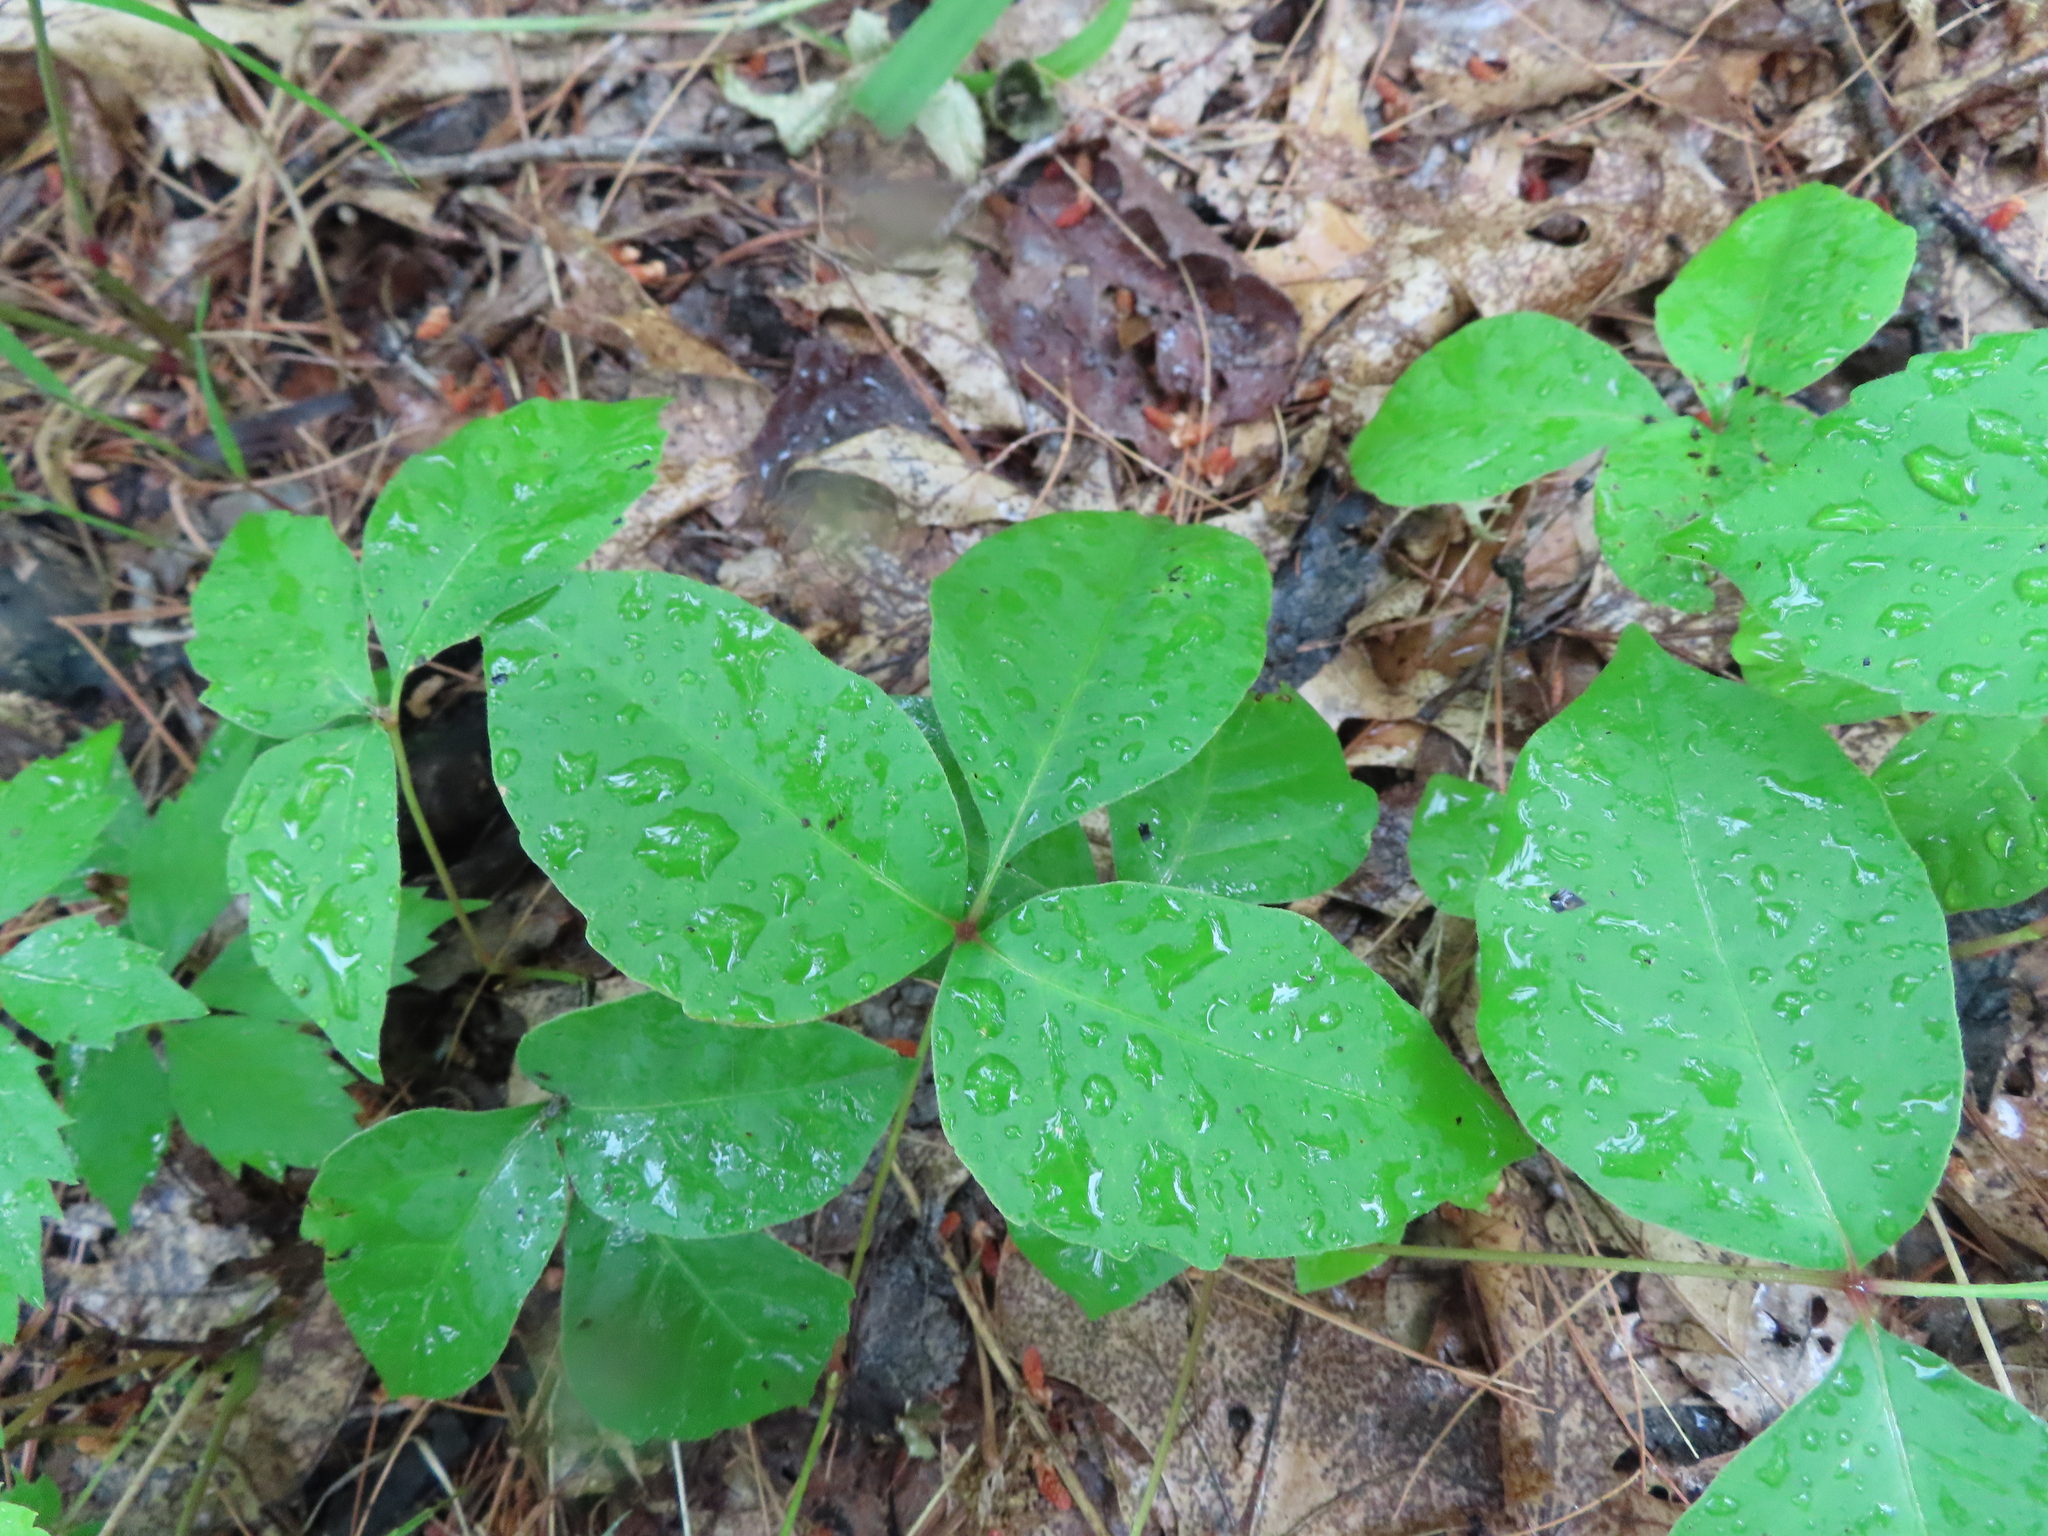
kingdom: Plantae
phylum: Tracheophyta
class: Magnoliopsida
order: Sapindales
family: Anacardiaceae
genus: Toxicodendron
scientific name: Toxicodendron rydbergii
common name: Rydberg's poison-ivy
